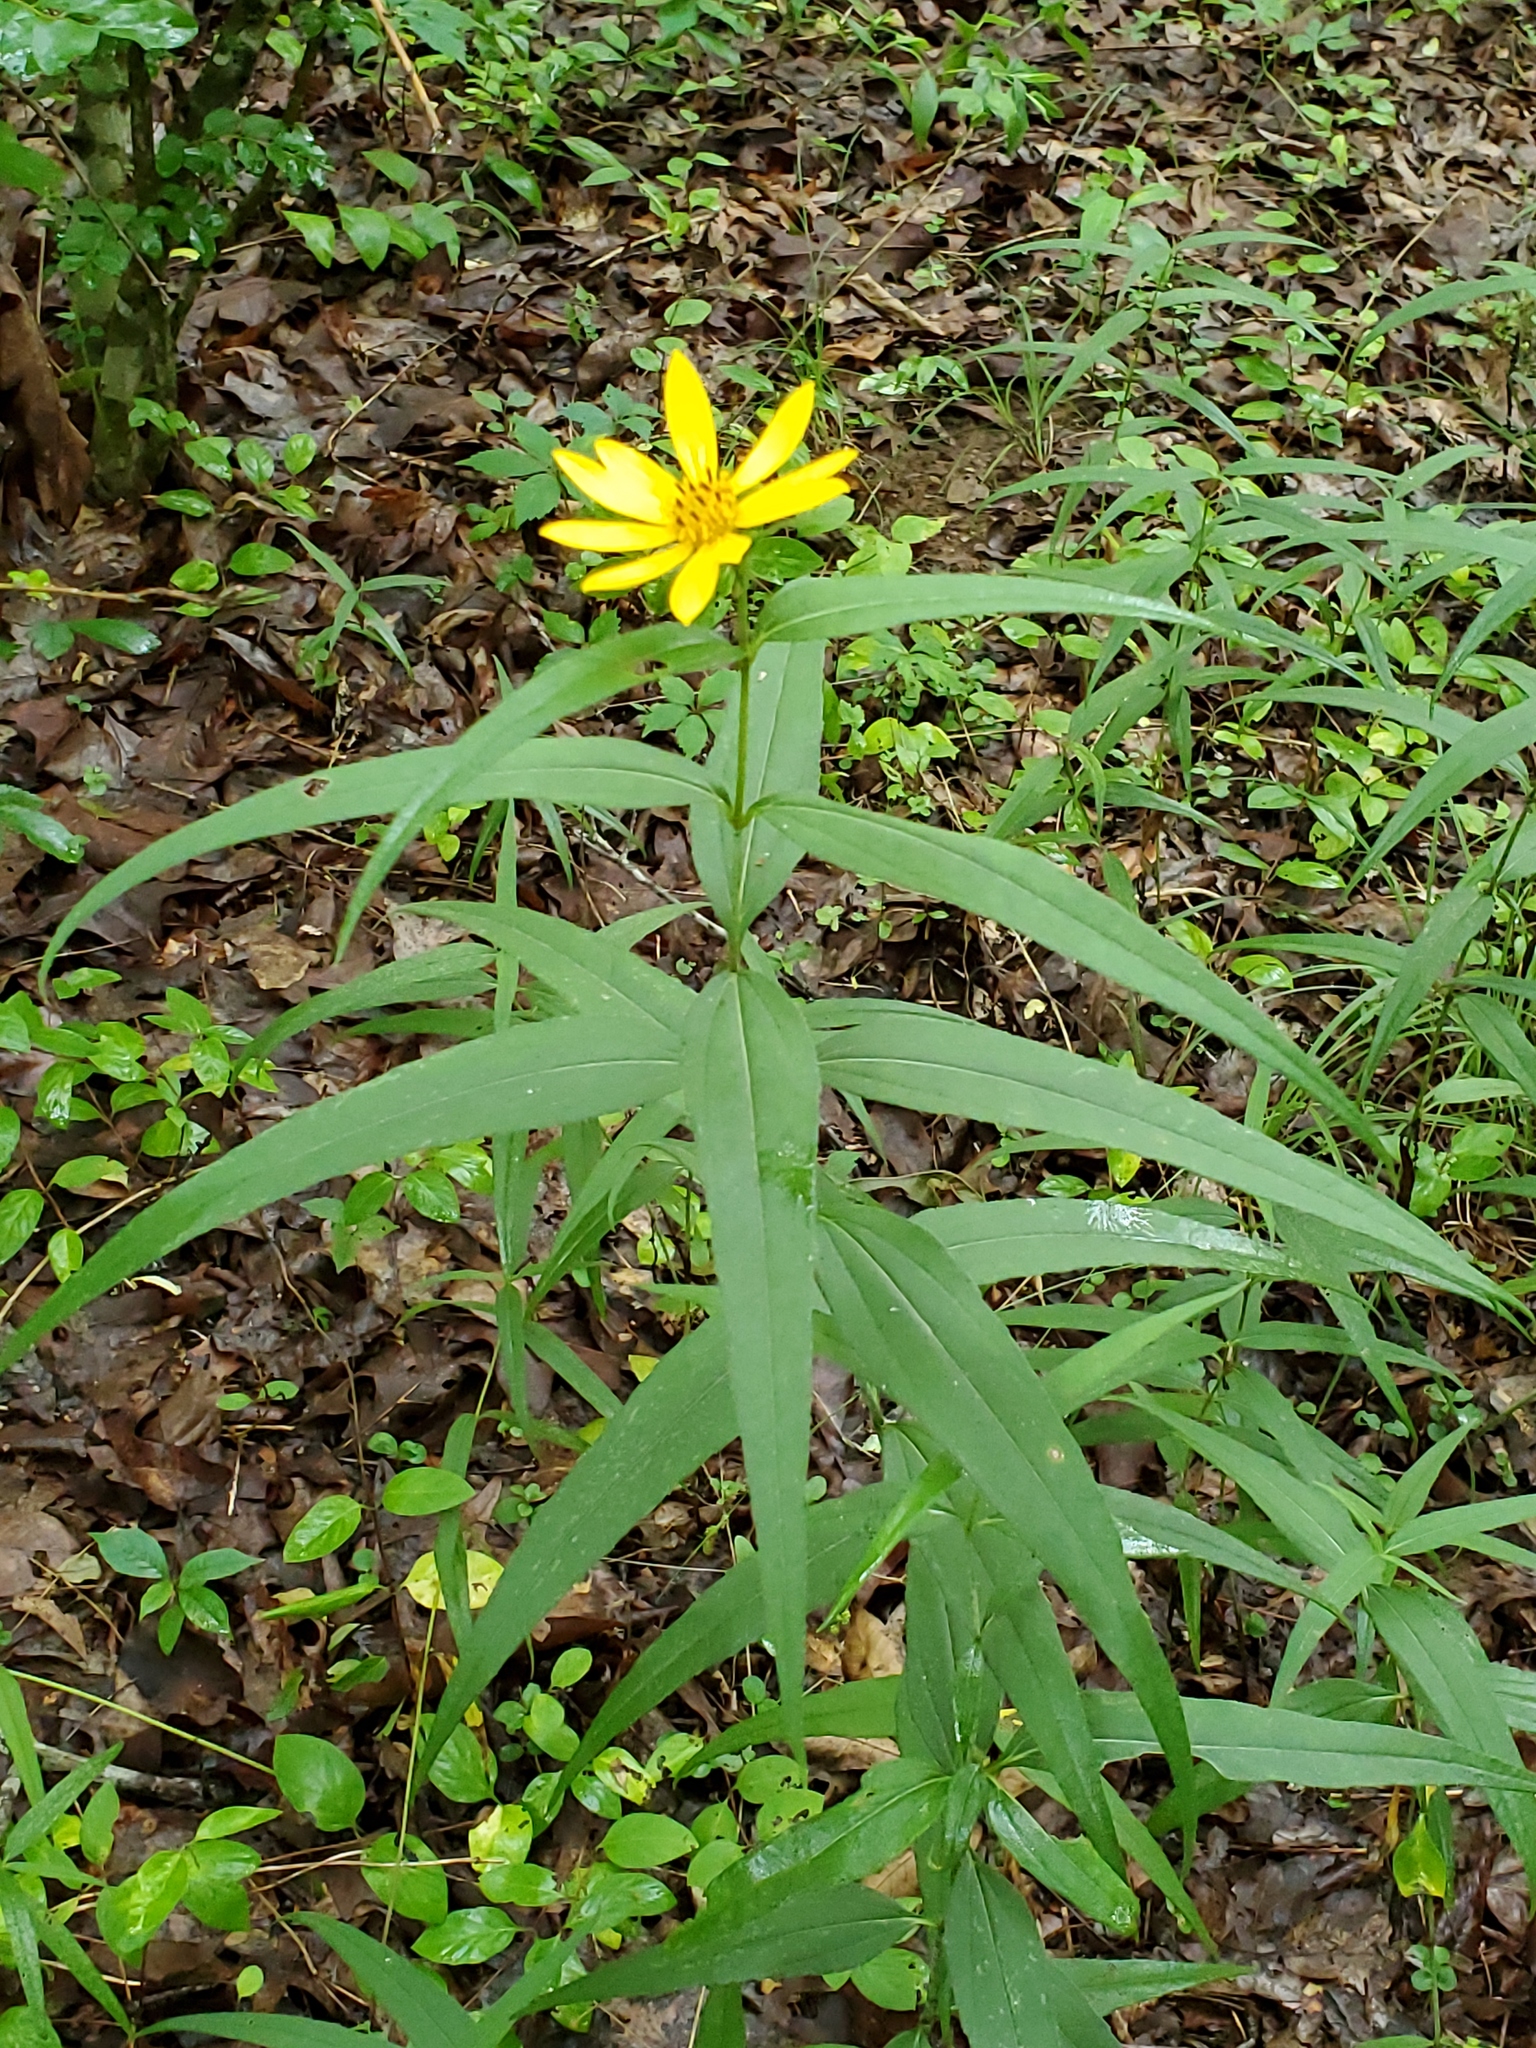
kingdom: Plantae
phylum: Tracheophyta
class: Magnoliopsida
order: Asterales
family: Asteraceae
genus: Helianthus
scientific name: Helianthus hirsutus
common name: Hairy sunflower
